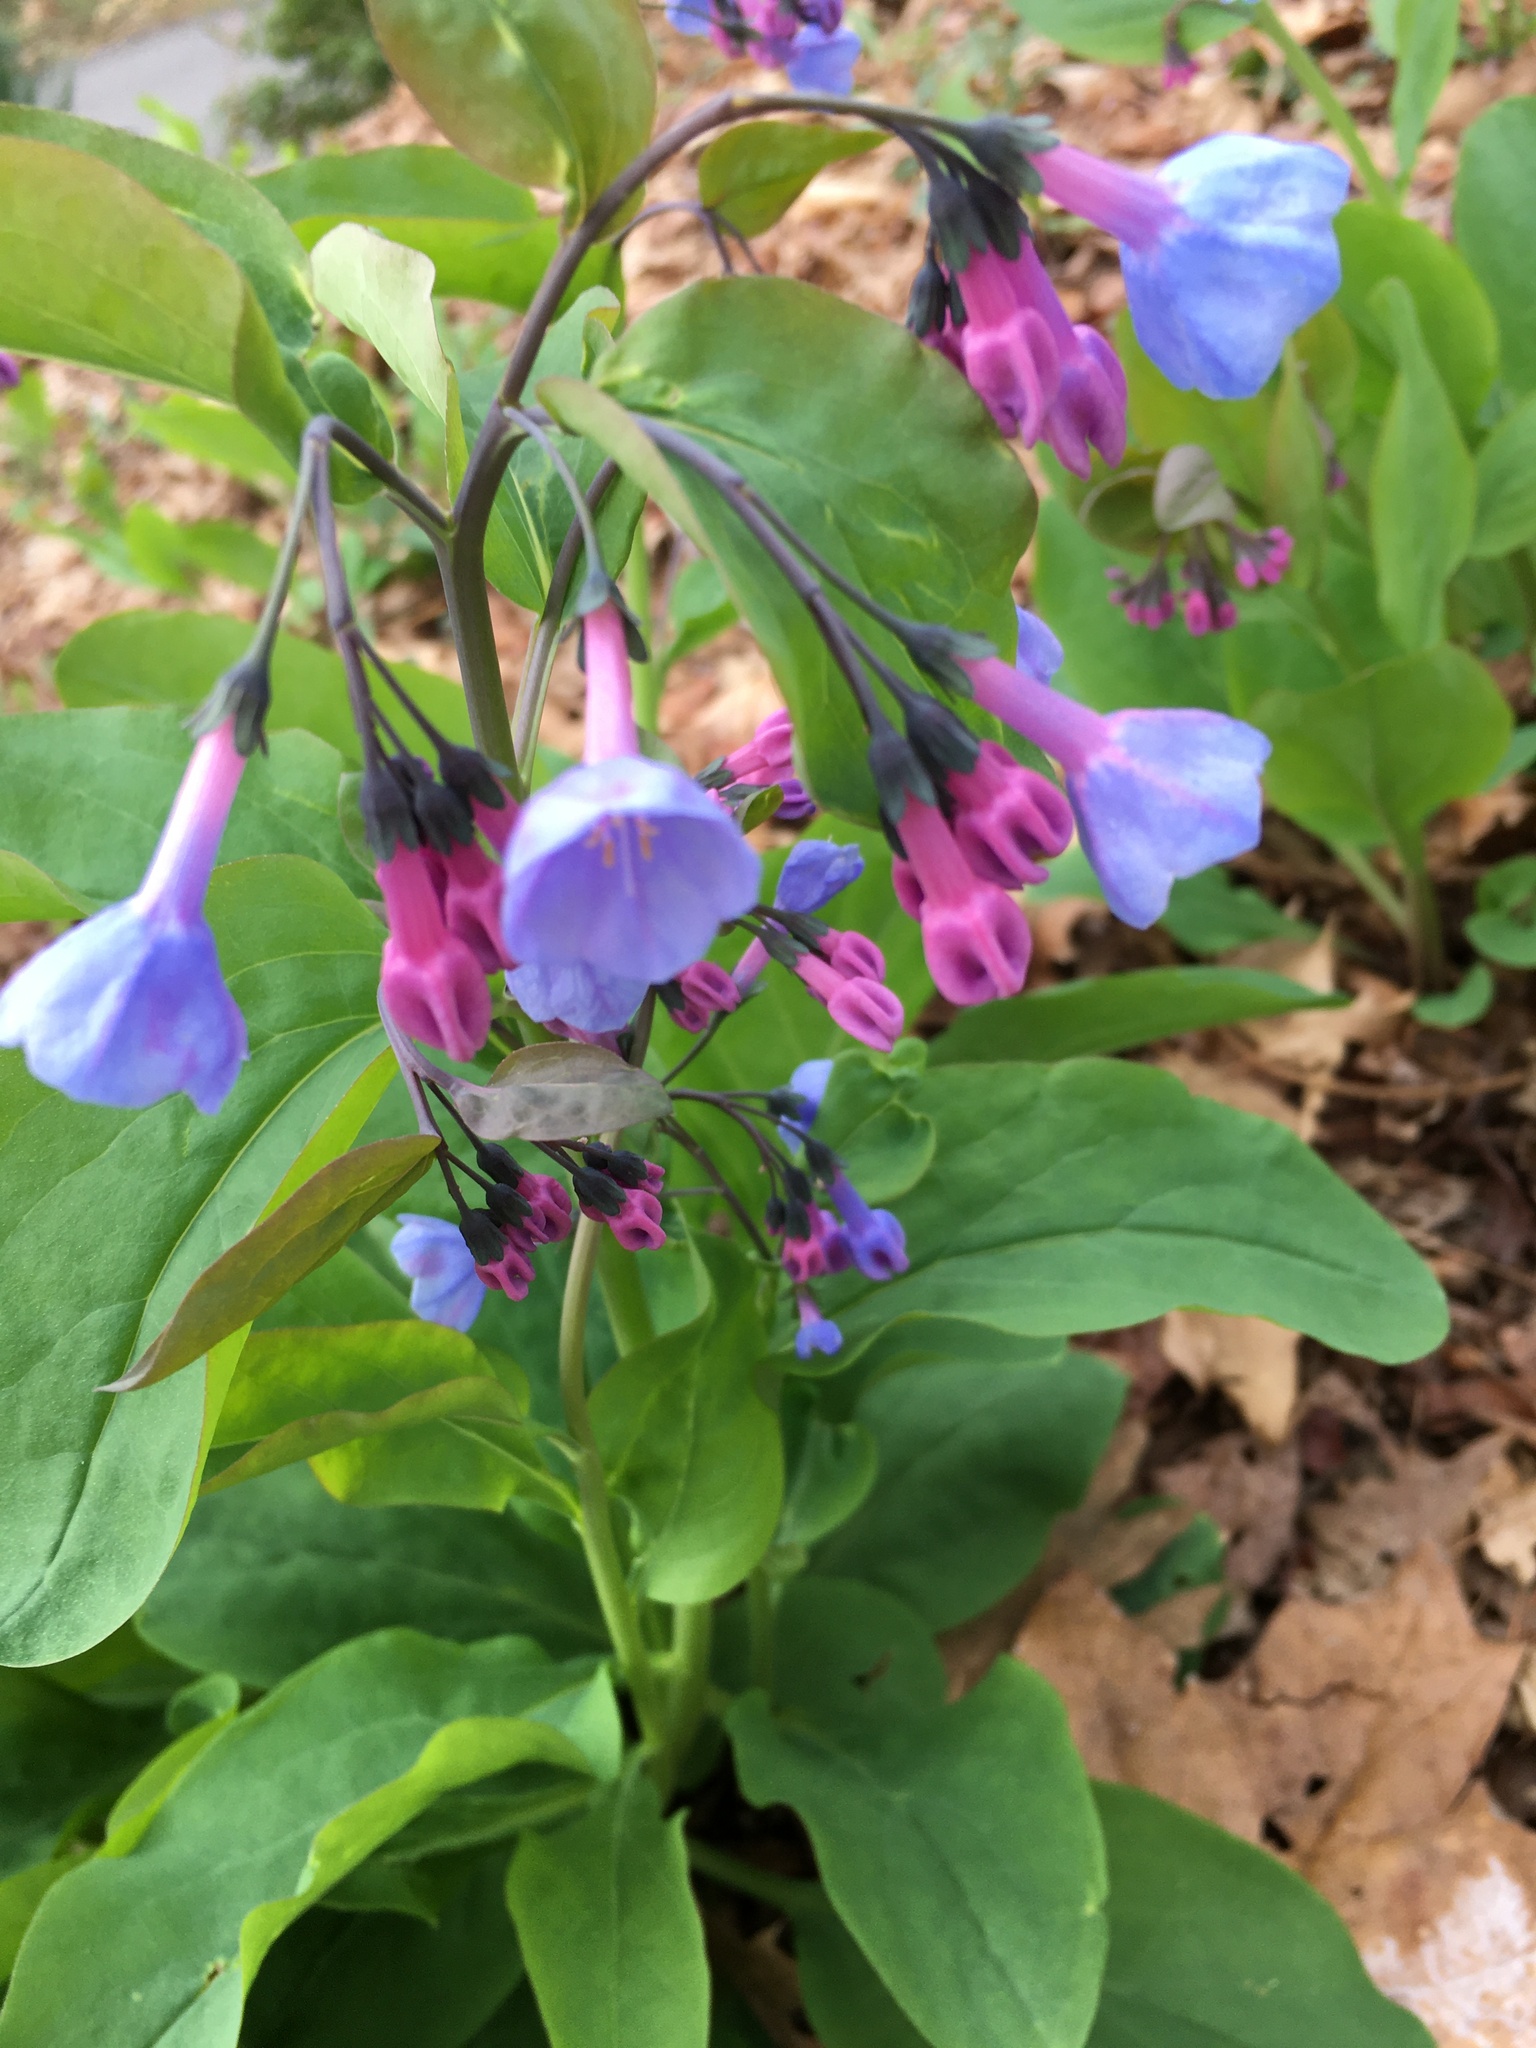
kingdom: Plantae
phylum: Tracheophyta
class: Magnoliopsida
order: Boraginales
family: Boraginaceae
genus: Mertensia
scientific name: Mertensia virginica
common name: Virginia bluebells
